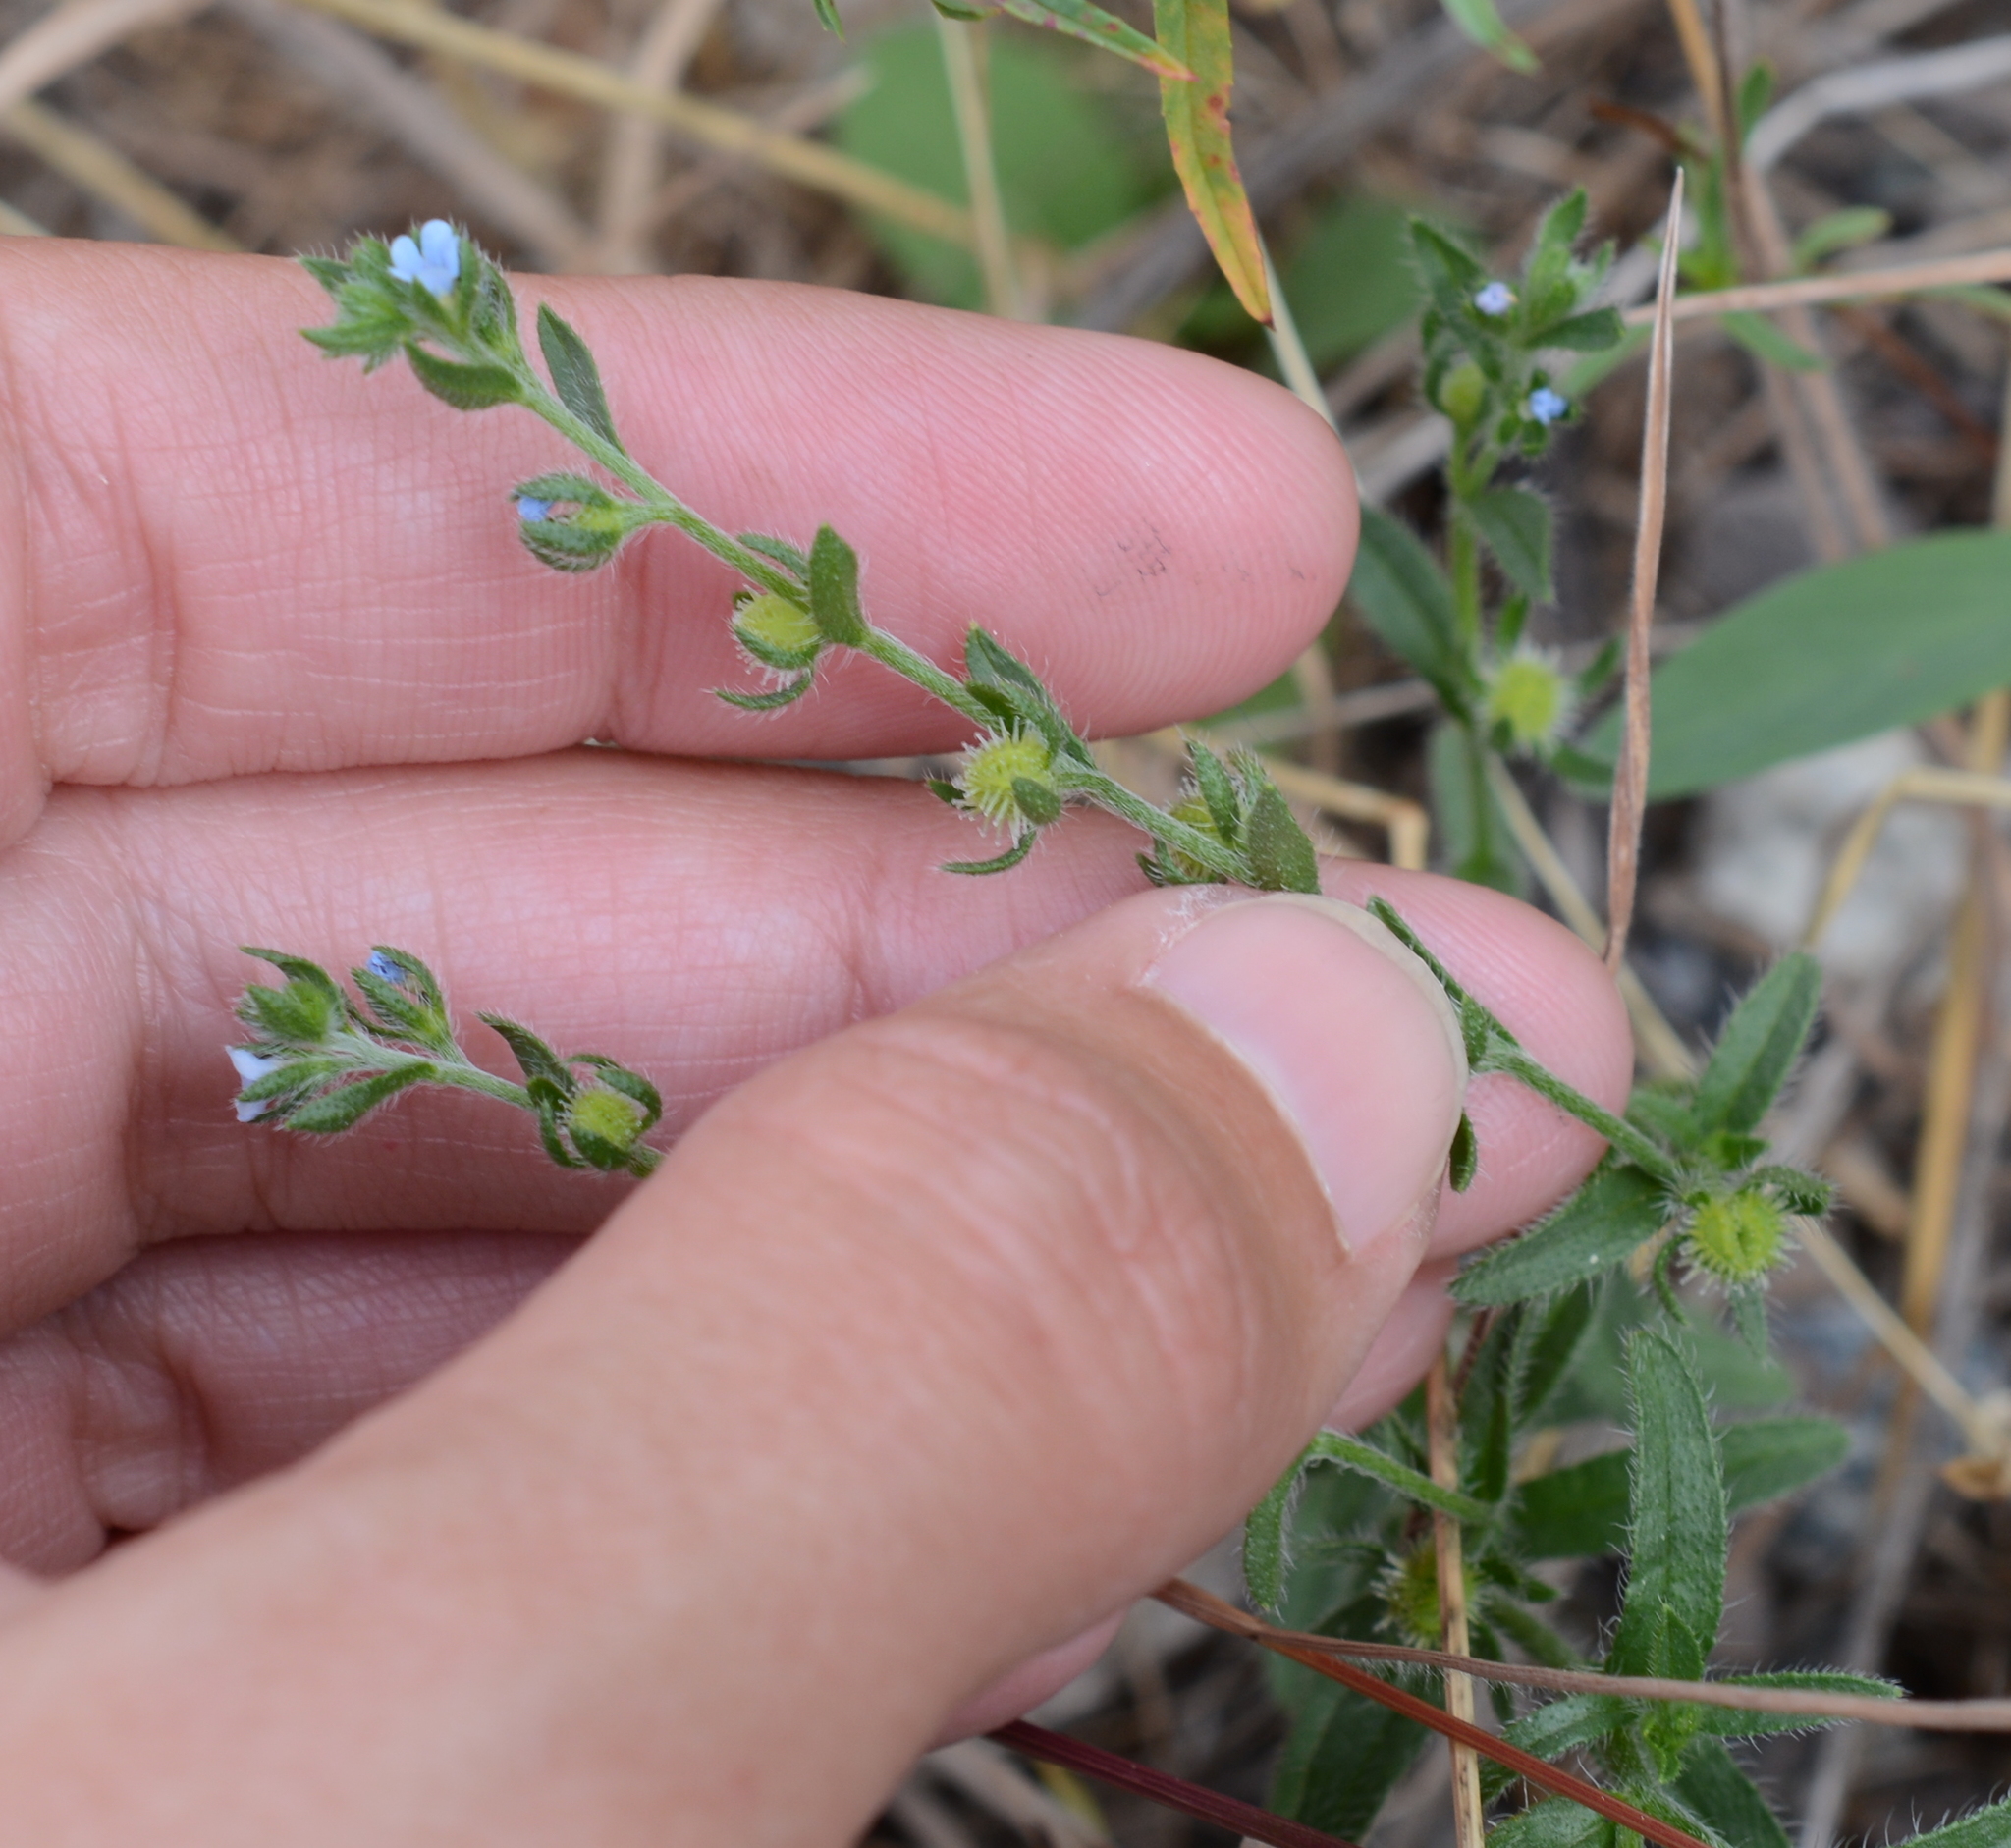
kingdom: Plantae
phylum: Tracheophyta
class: Magnoliopsida
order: Boraginales
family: Boraginaceae
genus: Lappula
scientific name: Lappula squarrosa
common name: European stickseed
